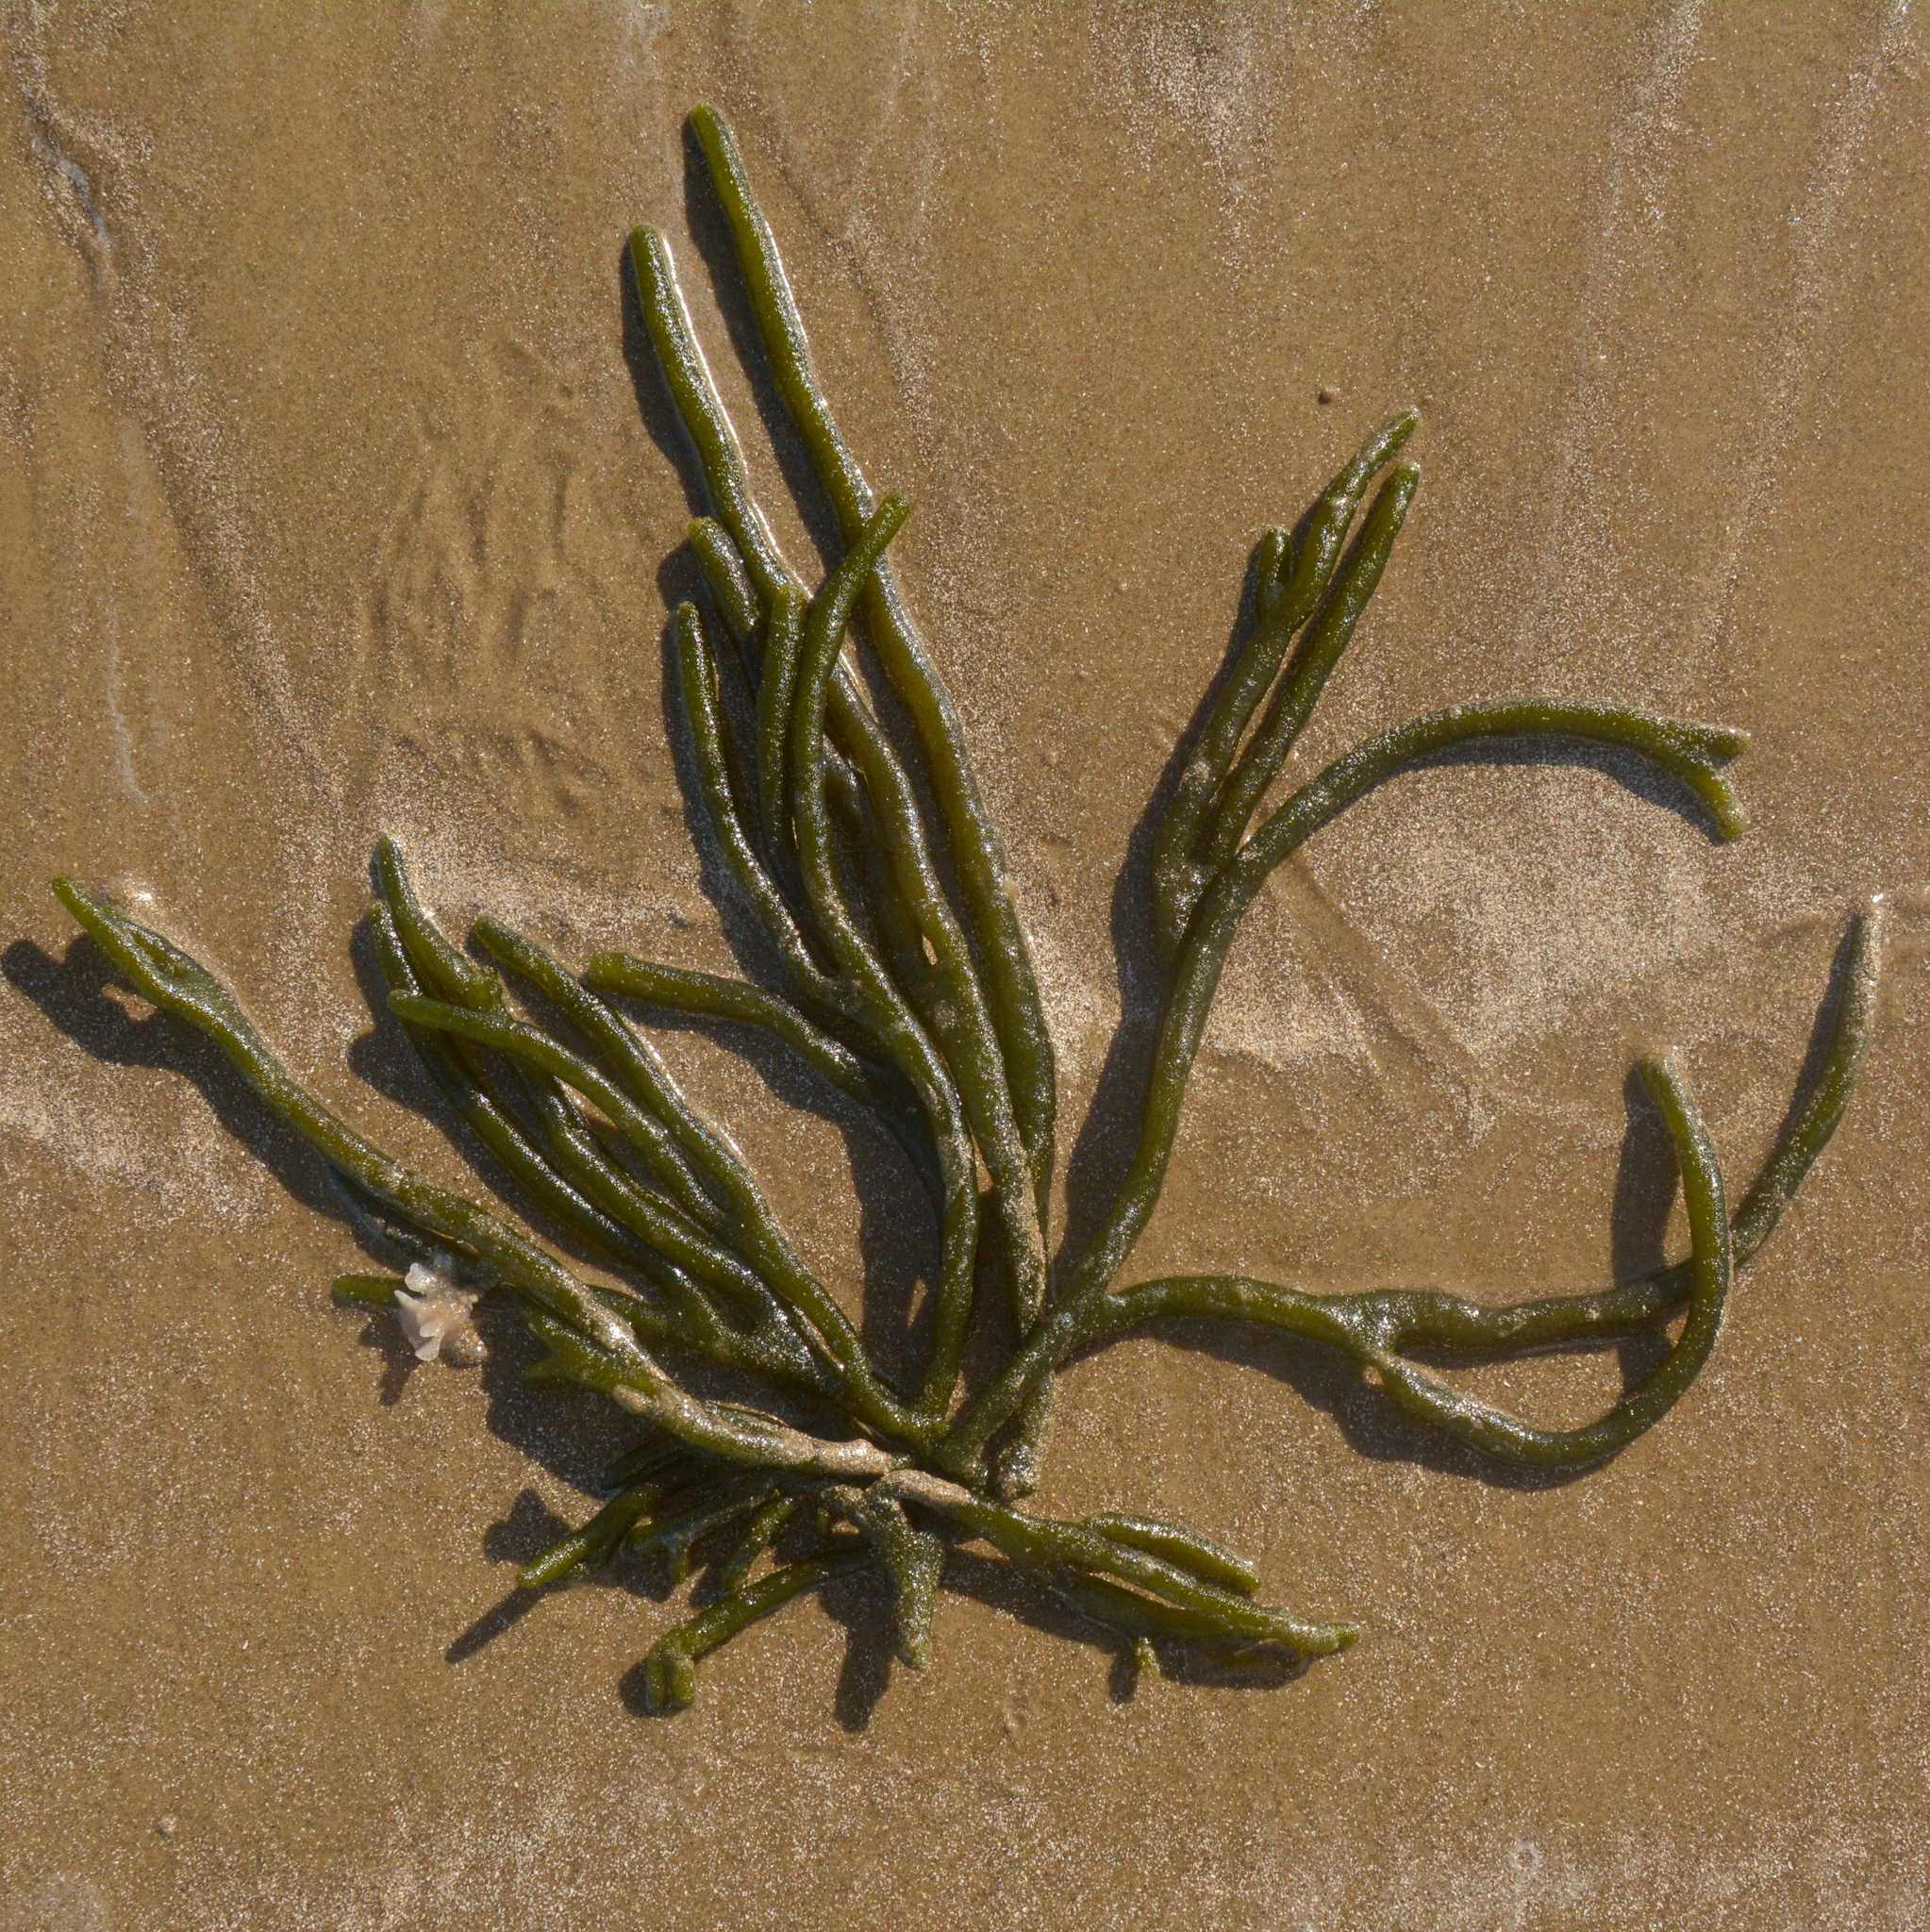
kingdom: Plantae
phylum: Chlorophyta
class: Ulvophyceae
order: Bryopsidales
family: Codiaceae
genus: Codium
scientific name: Codium decorticatum
